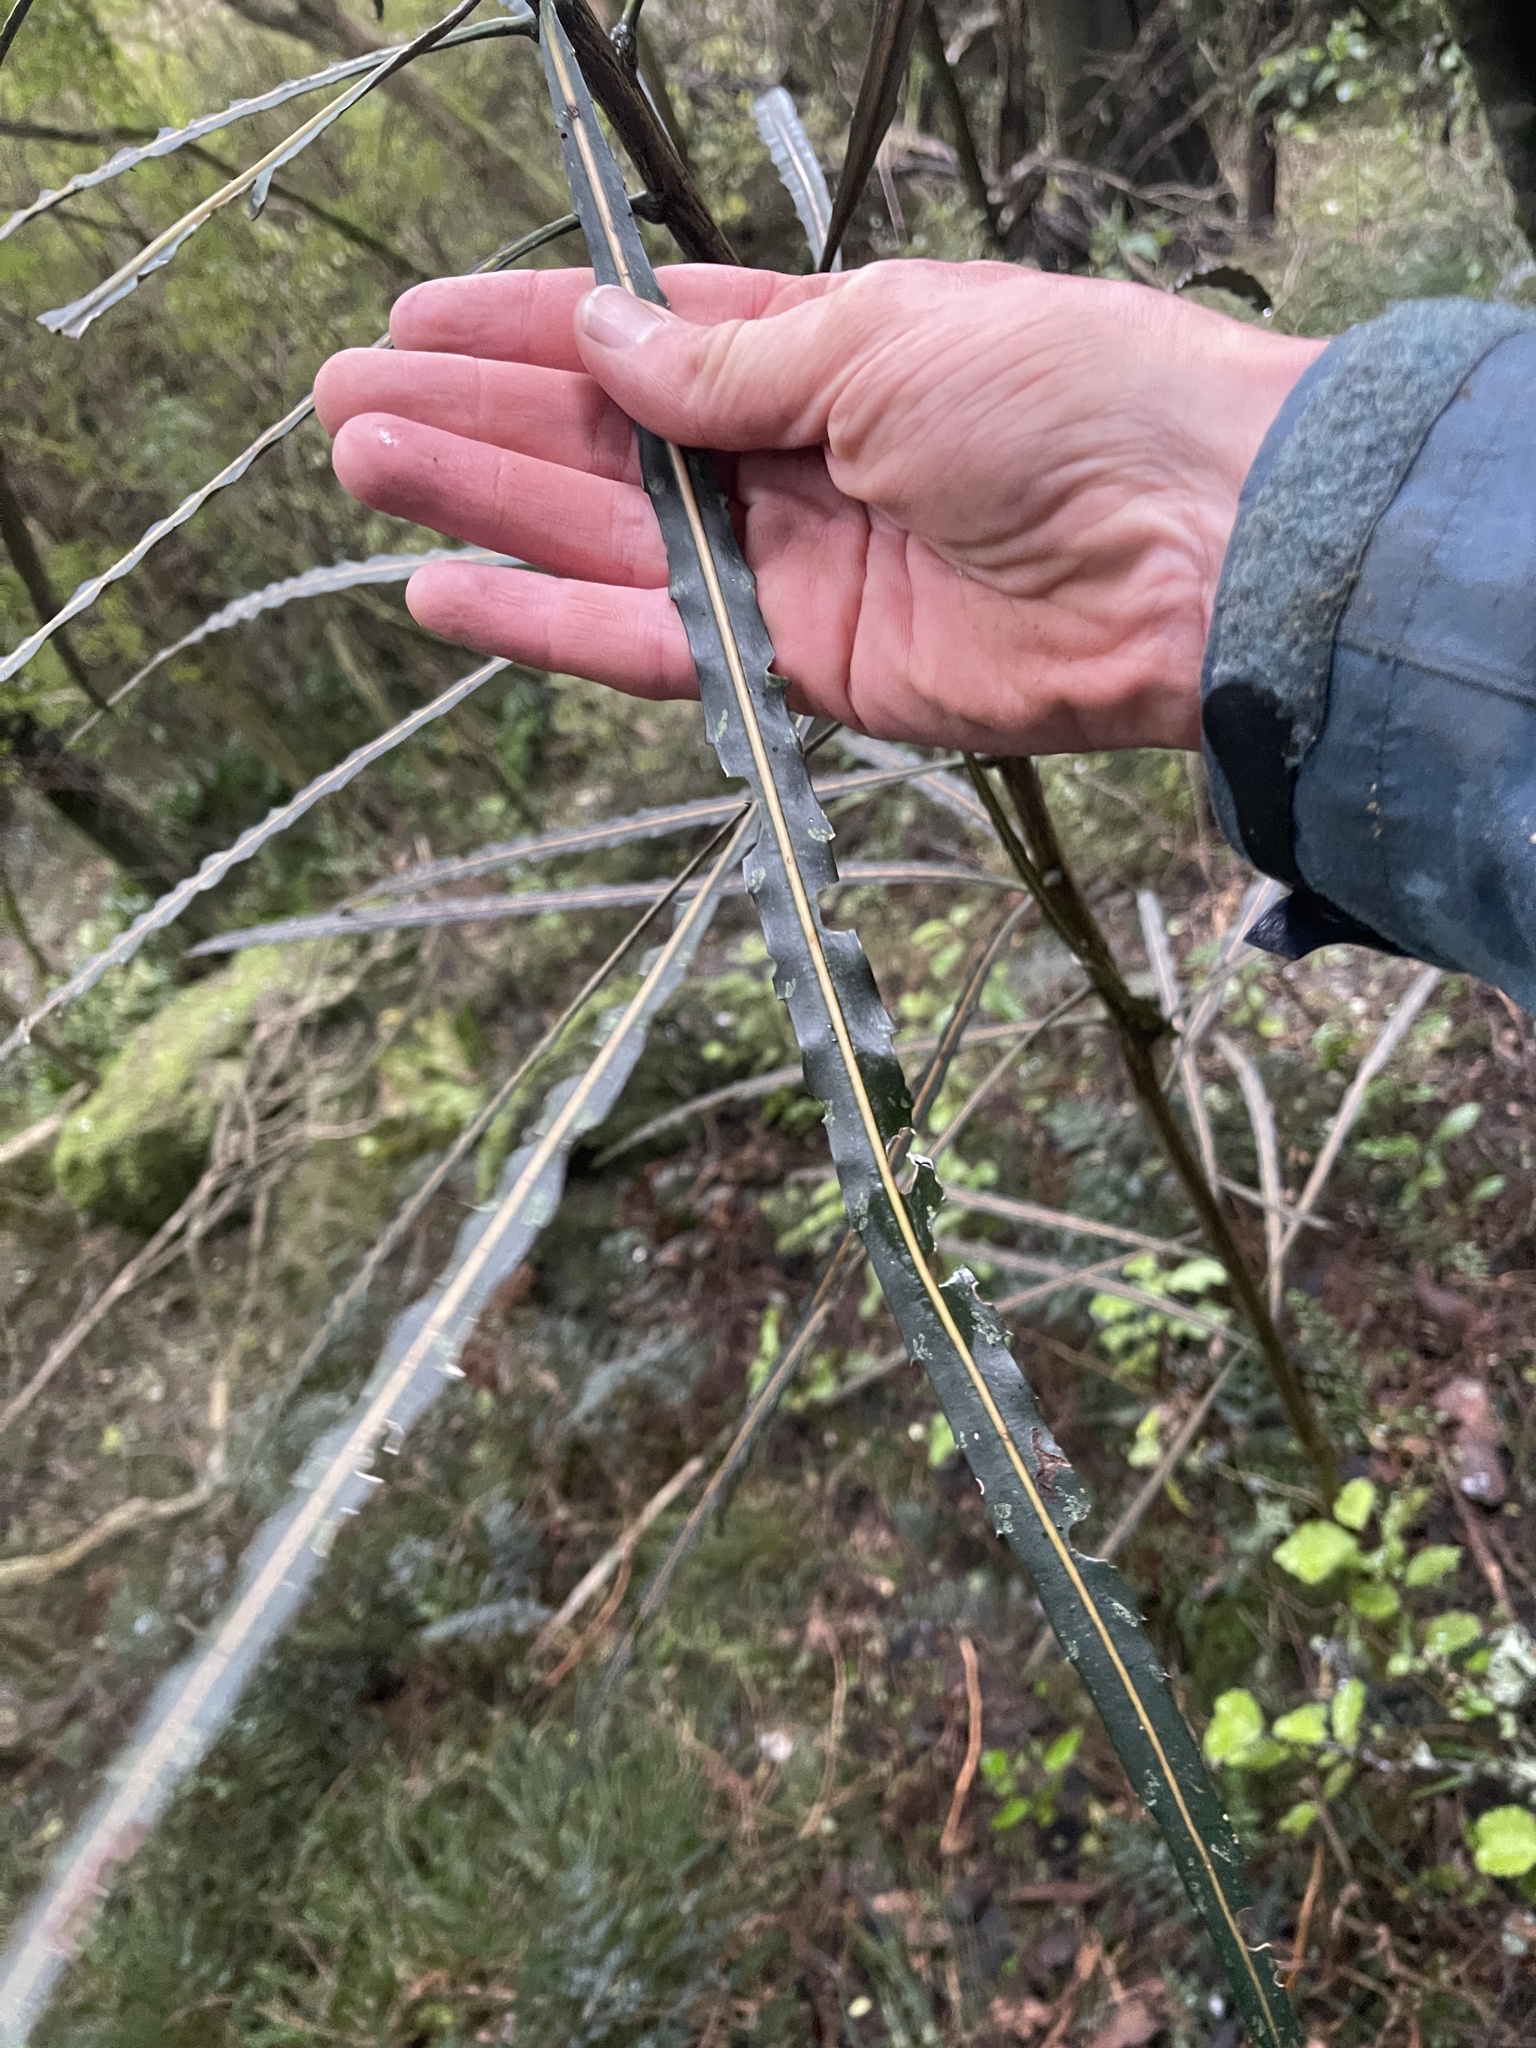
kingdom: Plantae
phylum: Tracheophyta
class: Magnoliopsida
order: Apiales
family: Araliaceae
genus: Pseudopanax
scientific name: Pseudopanax crassifolius
